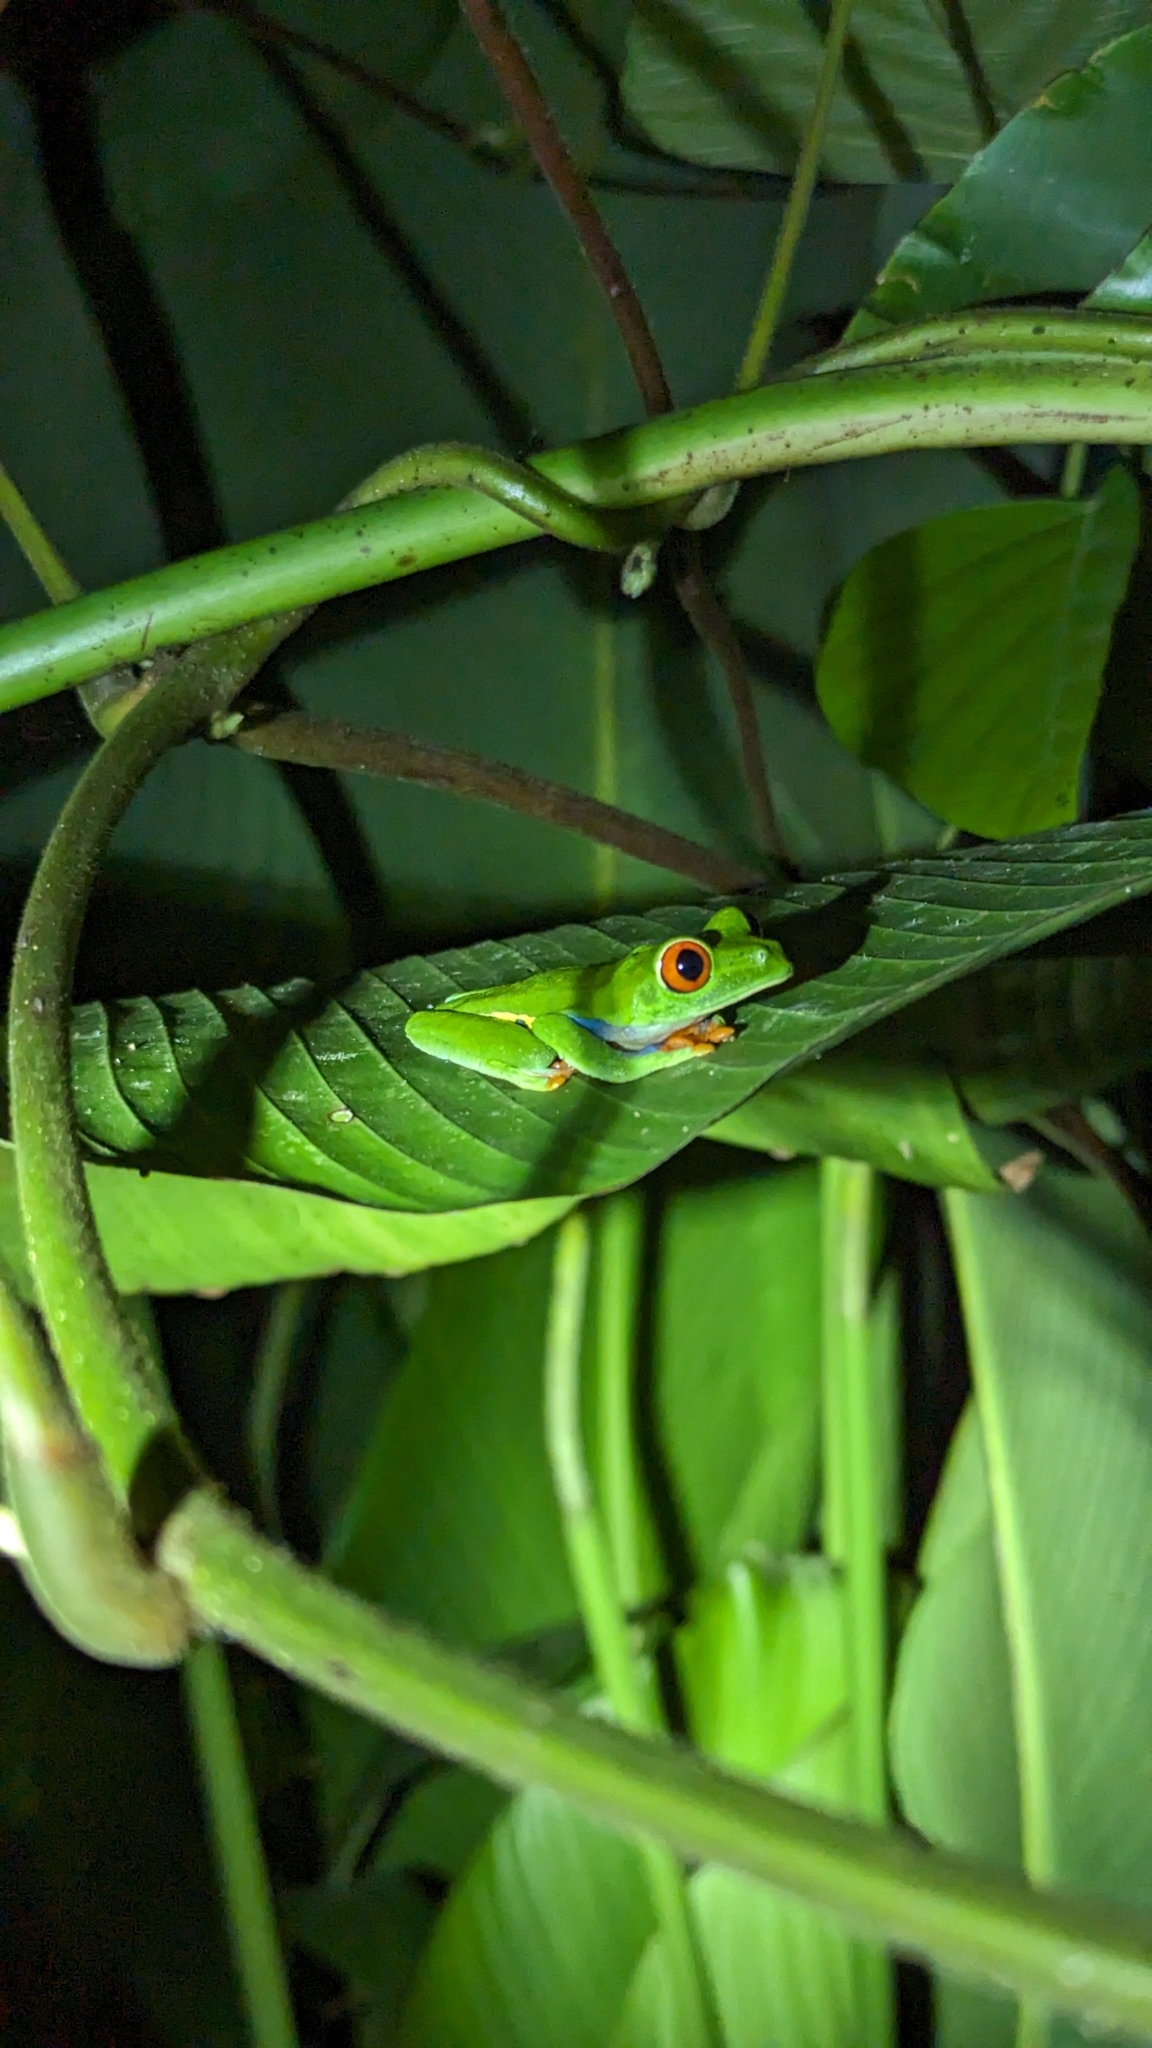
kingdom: Animalia
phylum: Chordata
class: Amphibia
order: Anura
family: Phyllomedusidae
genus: Agalychnis
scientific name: Agalychnis callidryas
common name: Red-eyed treefrog
